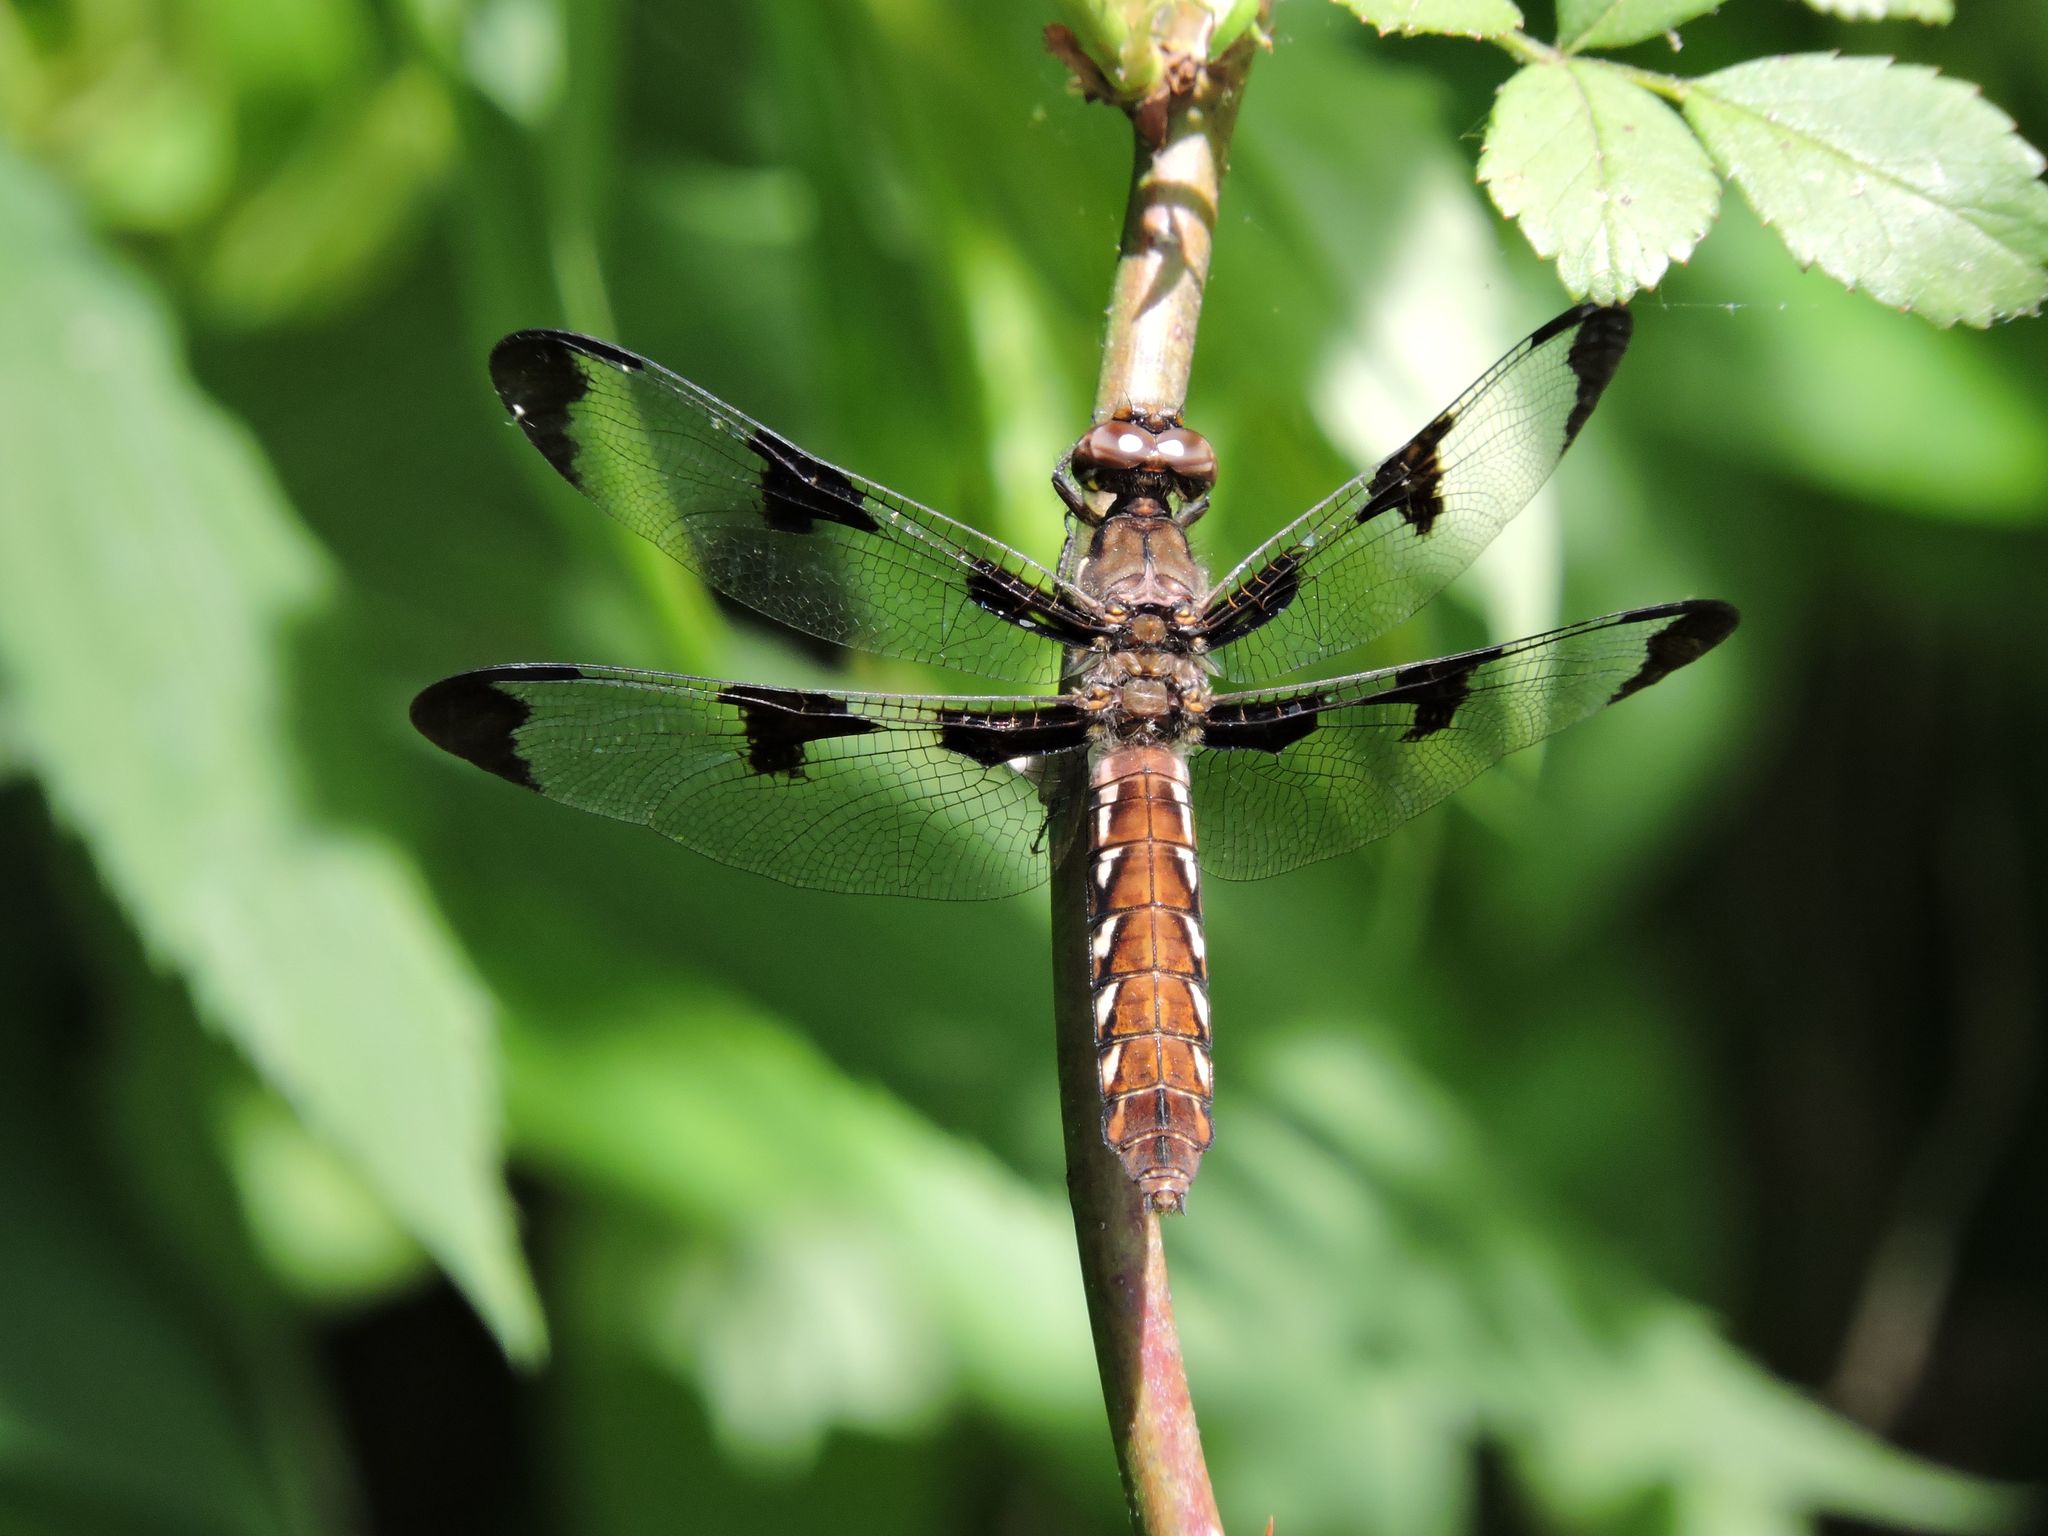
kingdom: Animalia
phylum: Arthropoda
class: Insecta
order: Odonata
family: Libellulidae
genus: Plathemis
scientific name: Plathemis lydia
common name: Common whitetail
